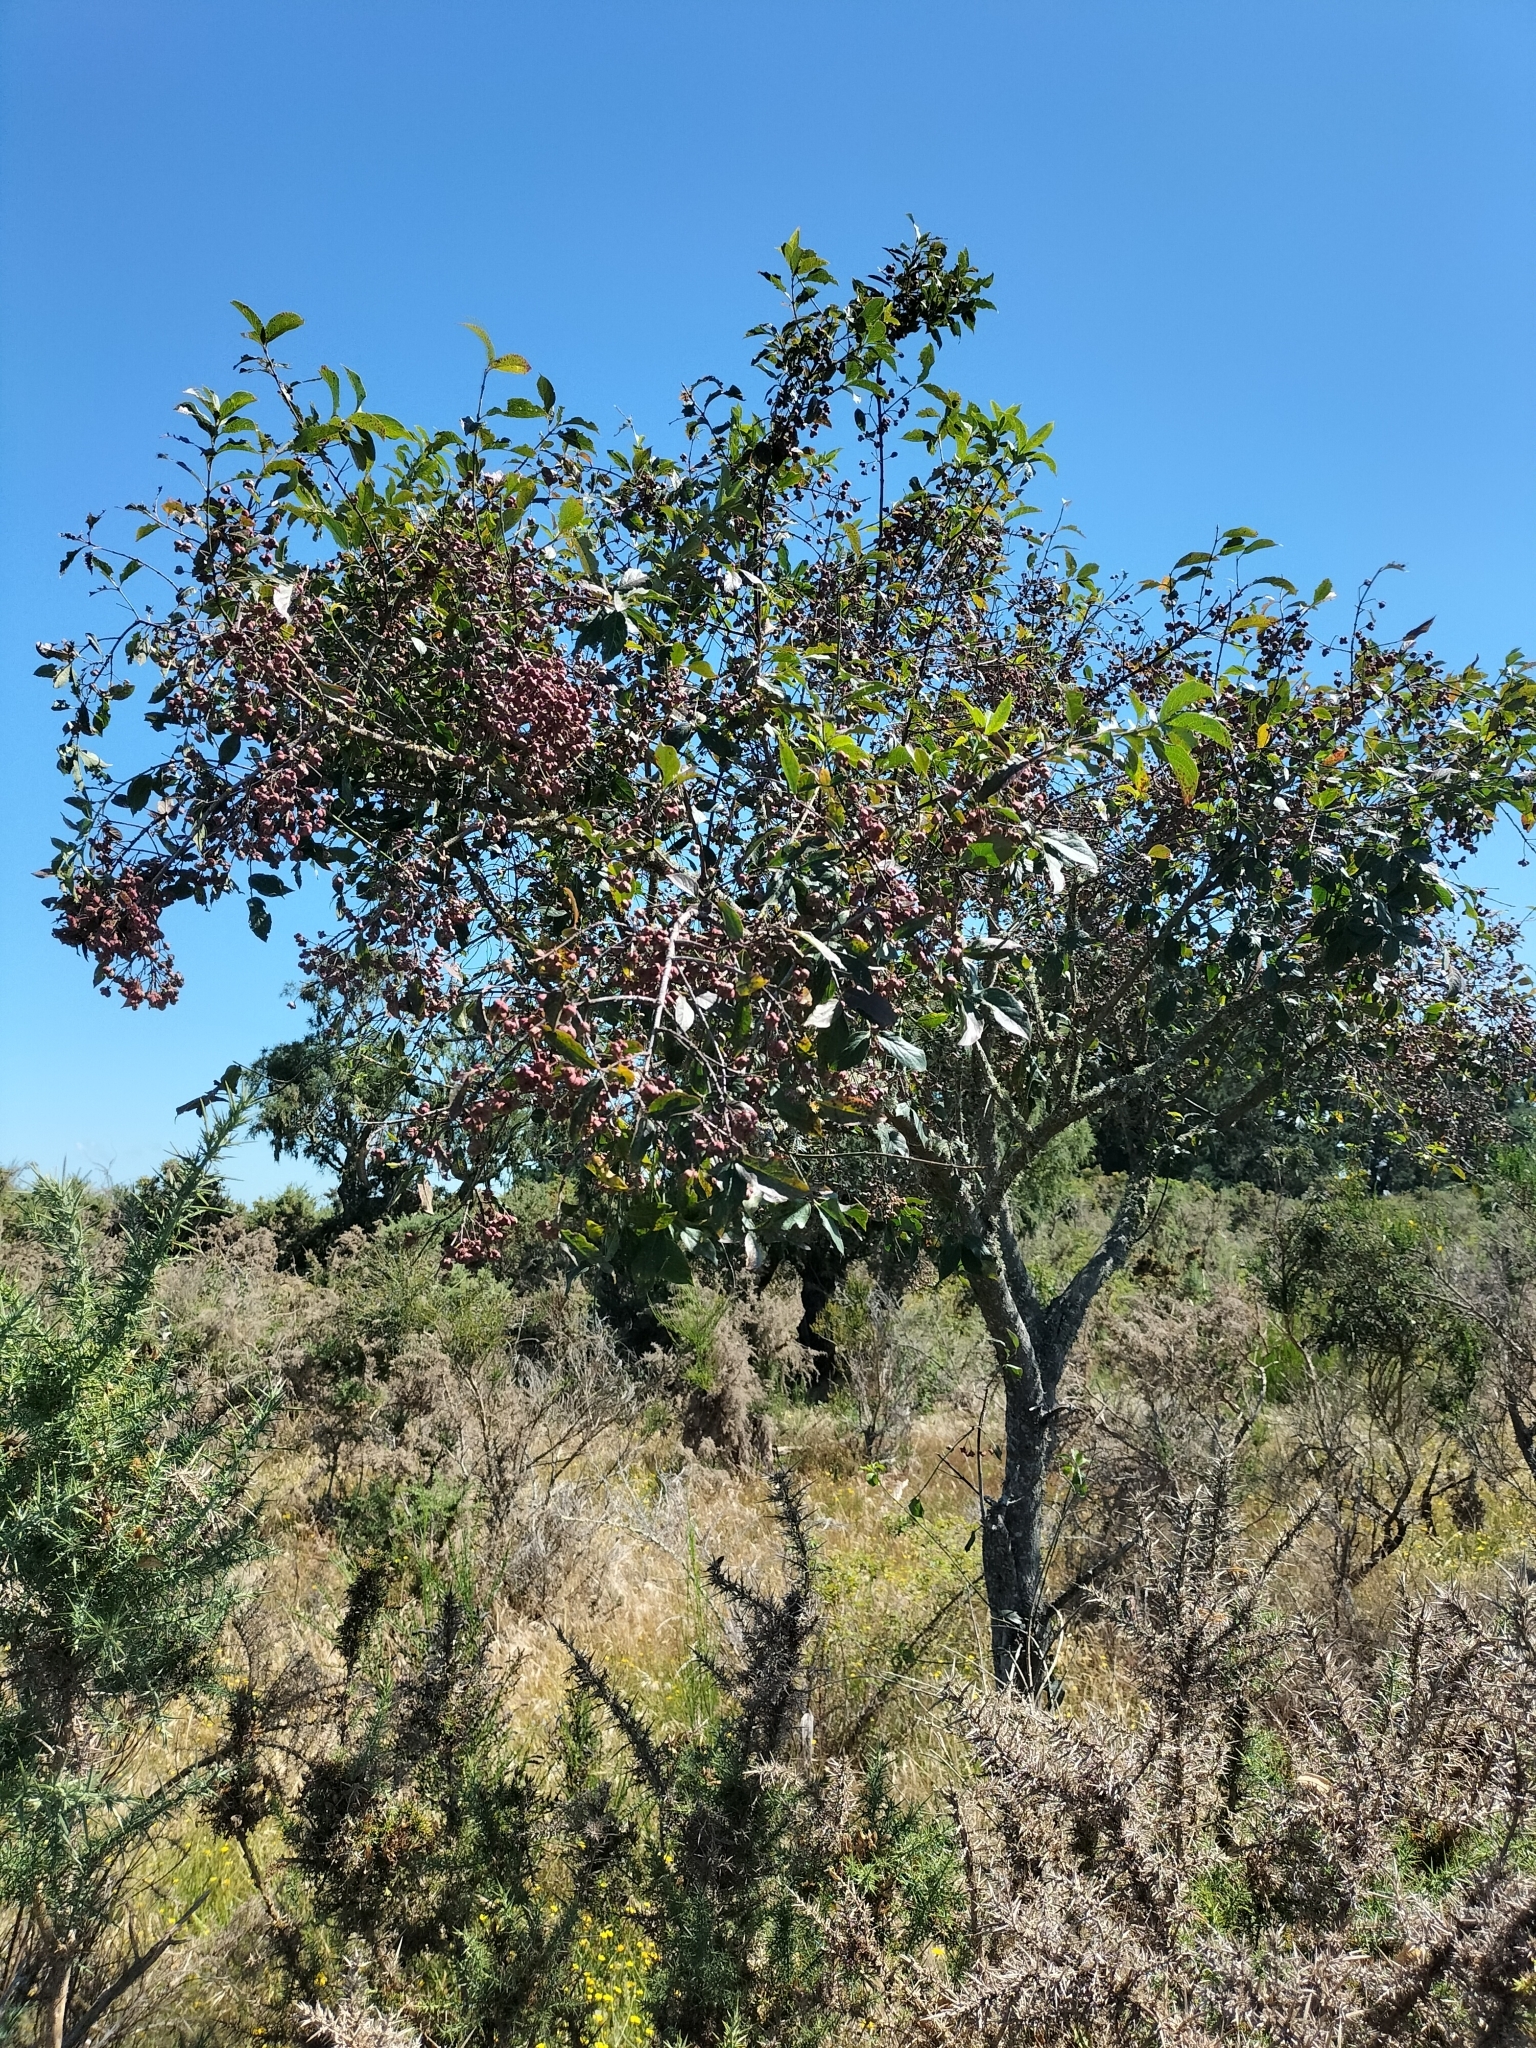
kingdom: Plantae
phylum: Tracheophyta
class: Magnoliopsida
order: Celastrales
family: Celastraceae
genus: Euonymus
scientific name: Euonymus europaeus
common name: Spindle
